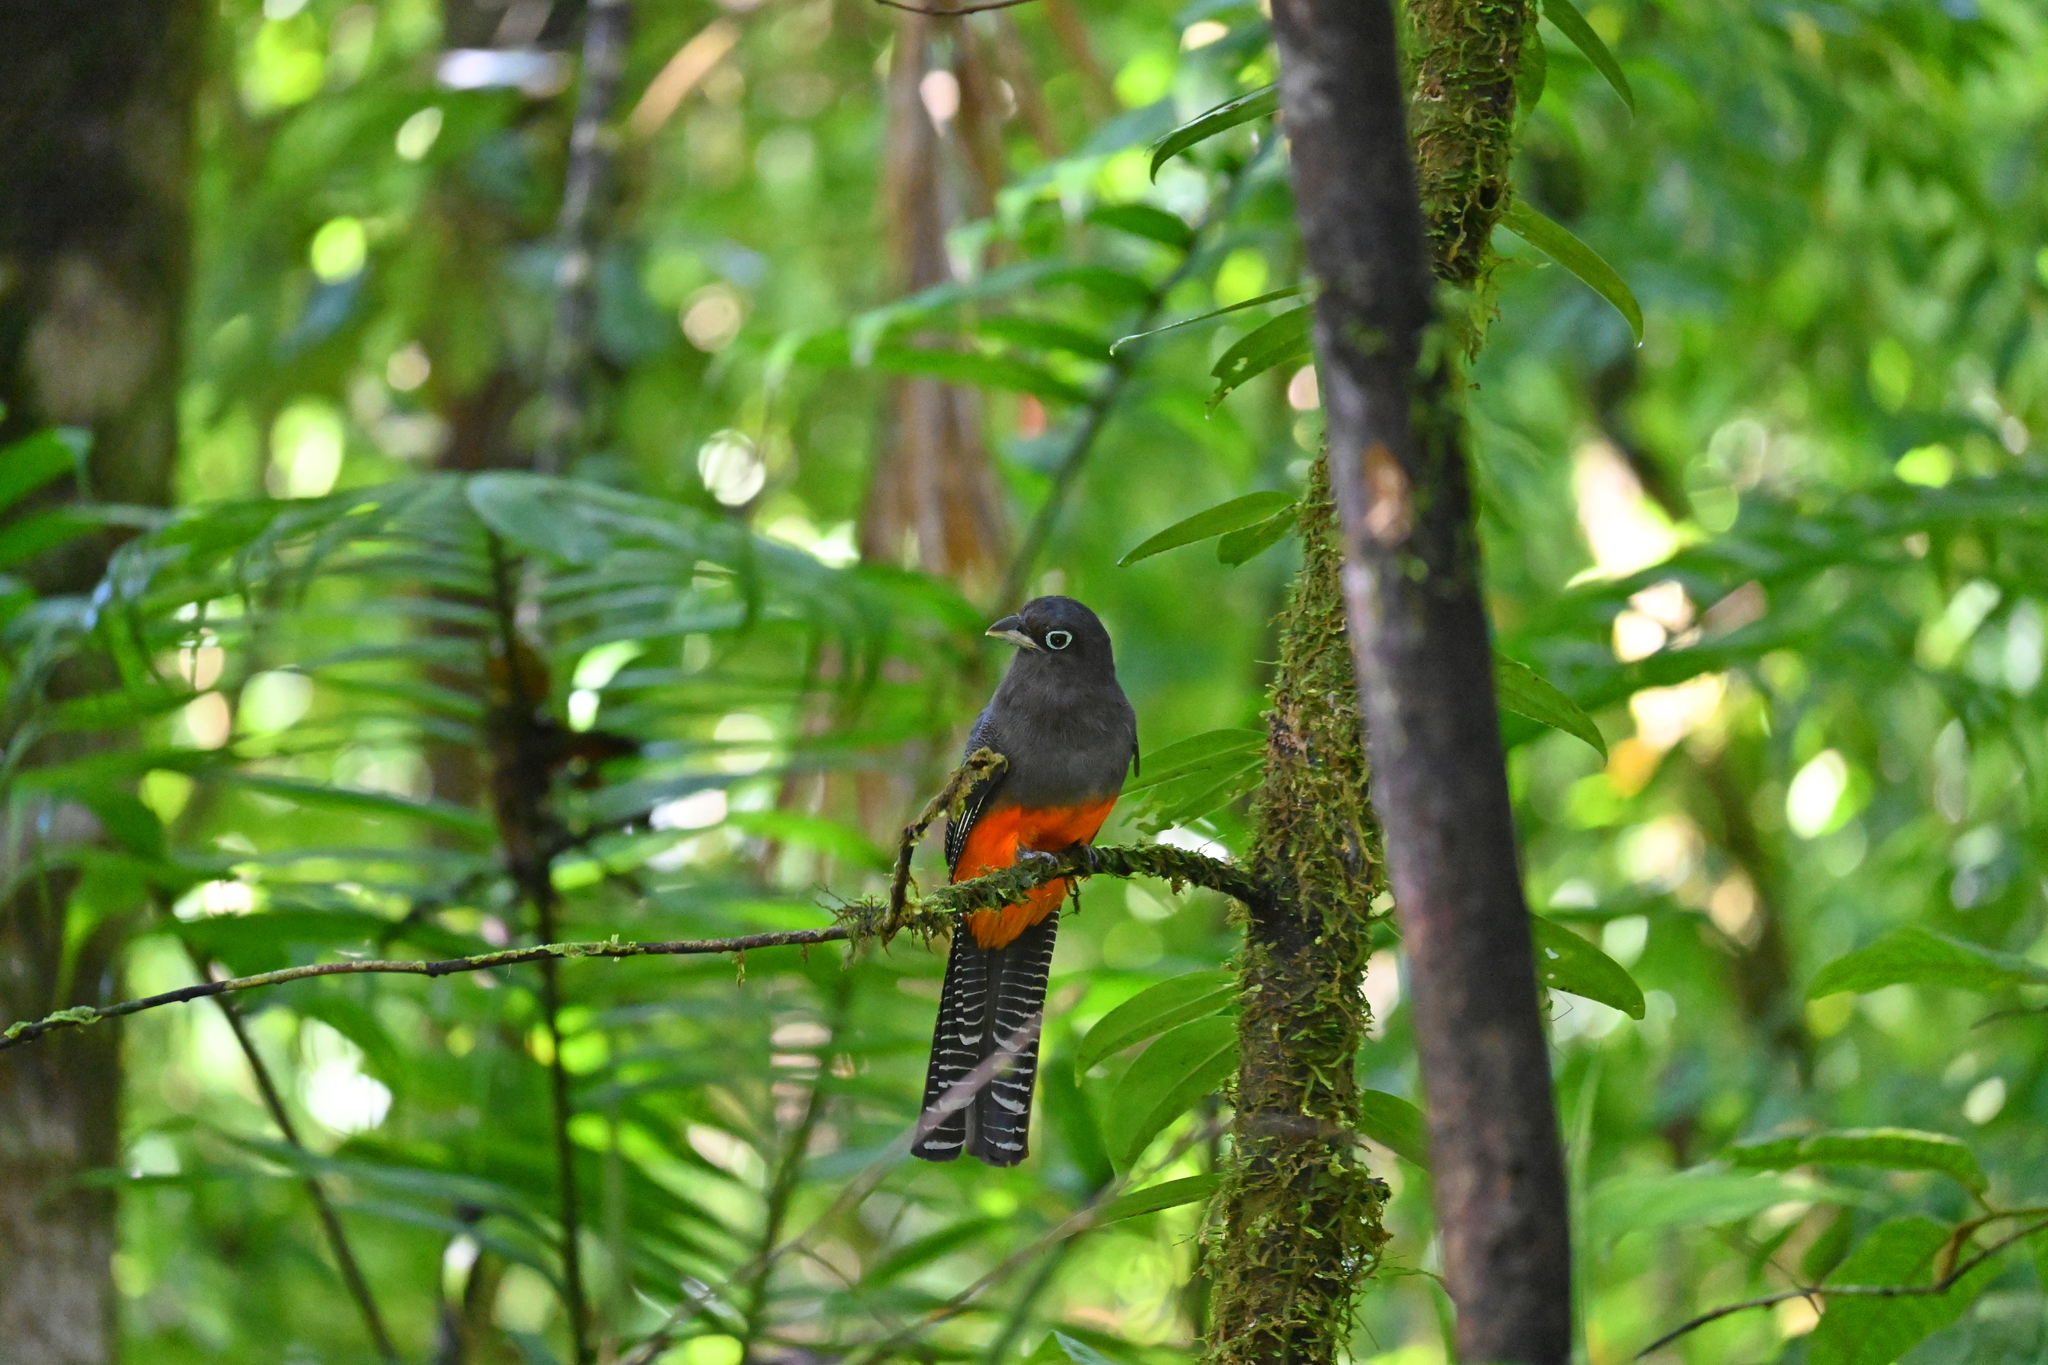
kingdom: Animalia
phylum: Chordata
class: Aves
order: Trogoniformes
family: Trogonidae
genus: Trogon
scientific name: Trogon bairdii
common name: Baird's trogon
